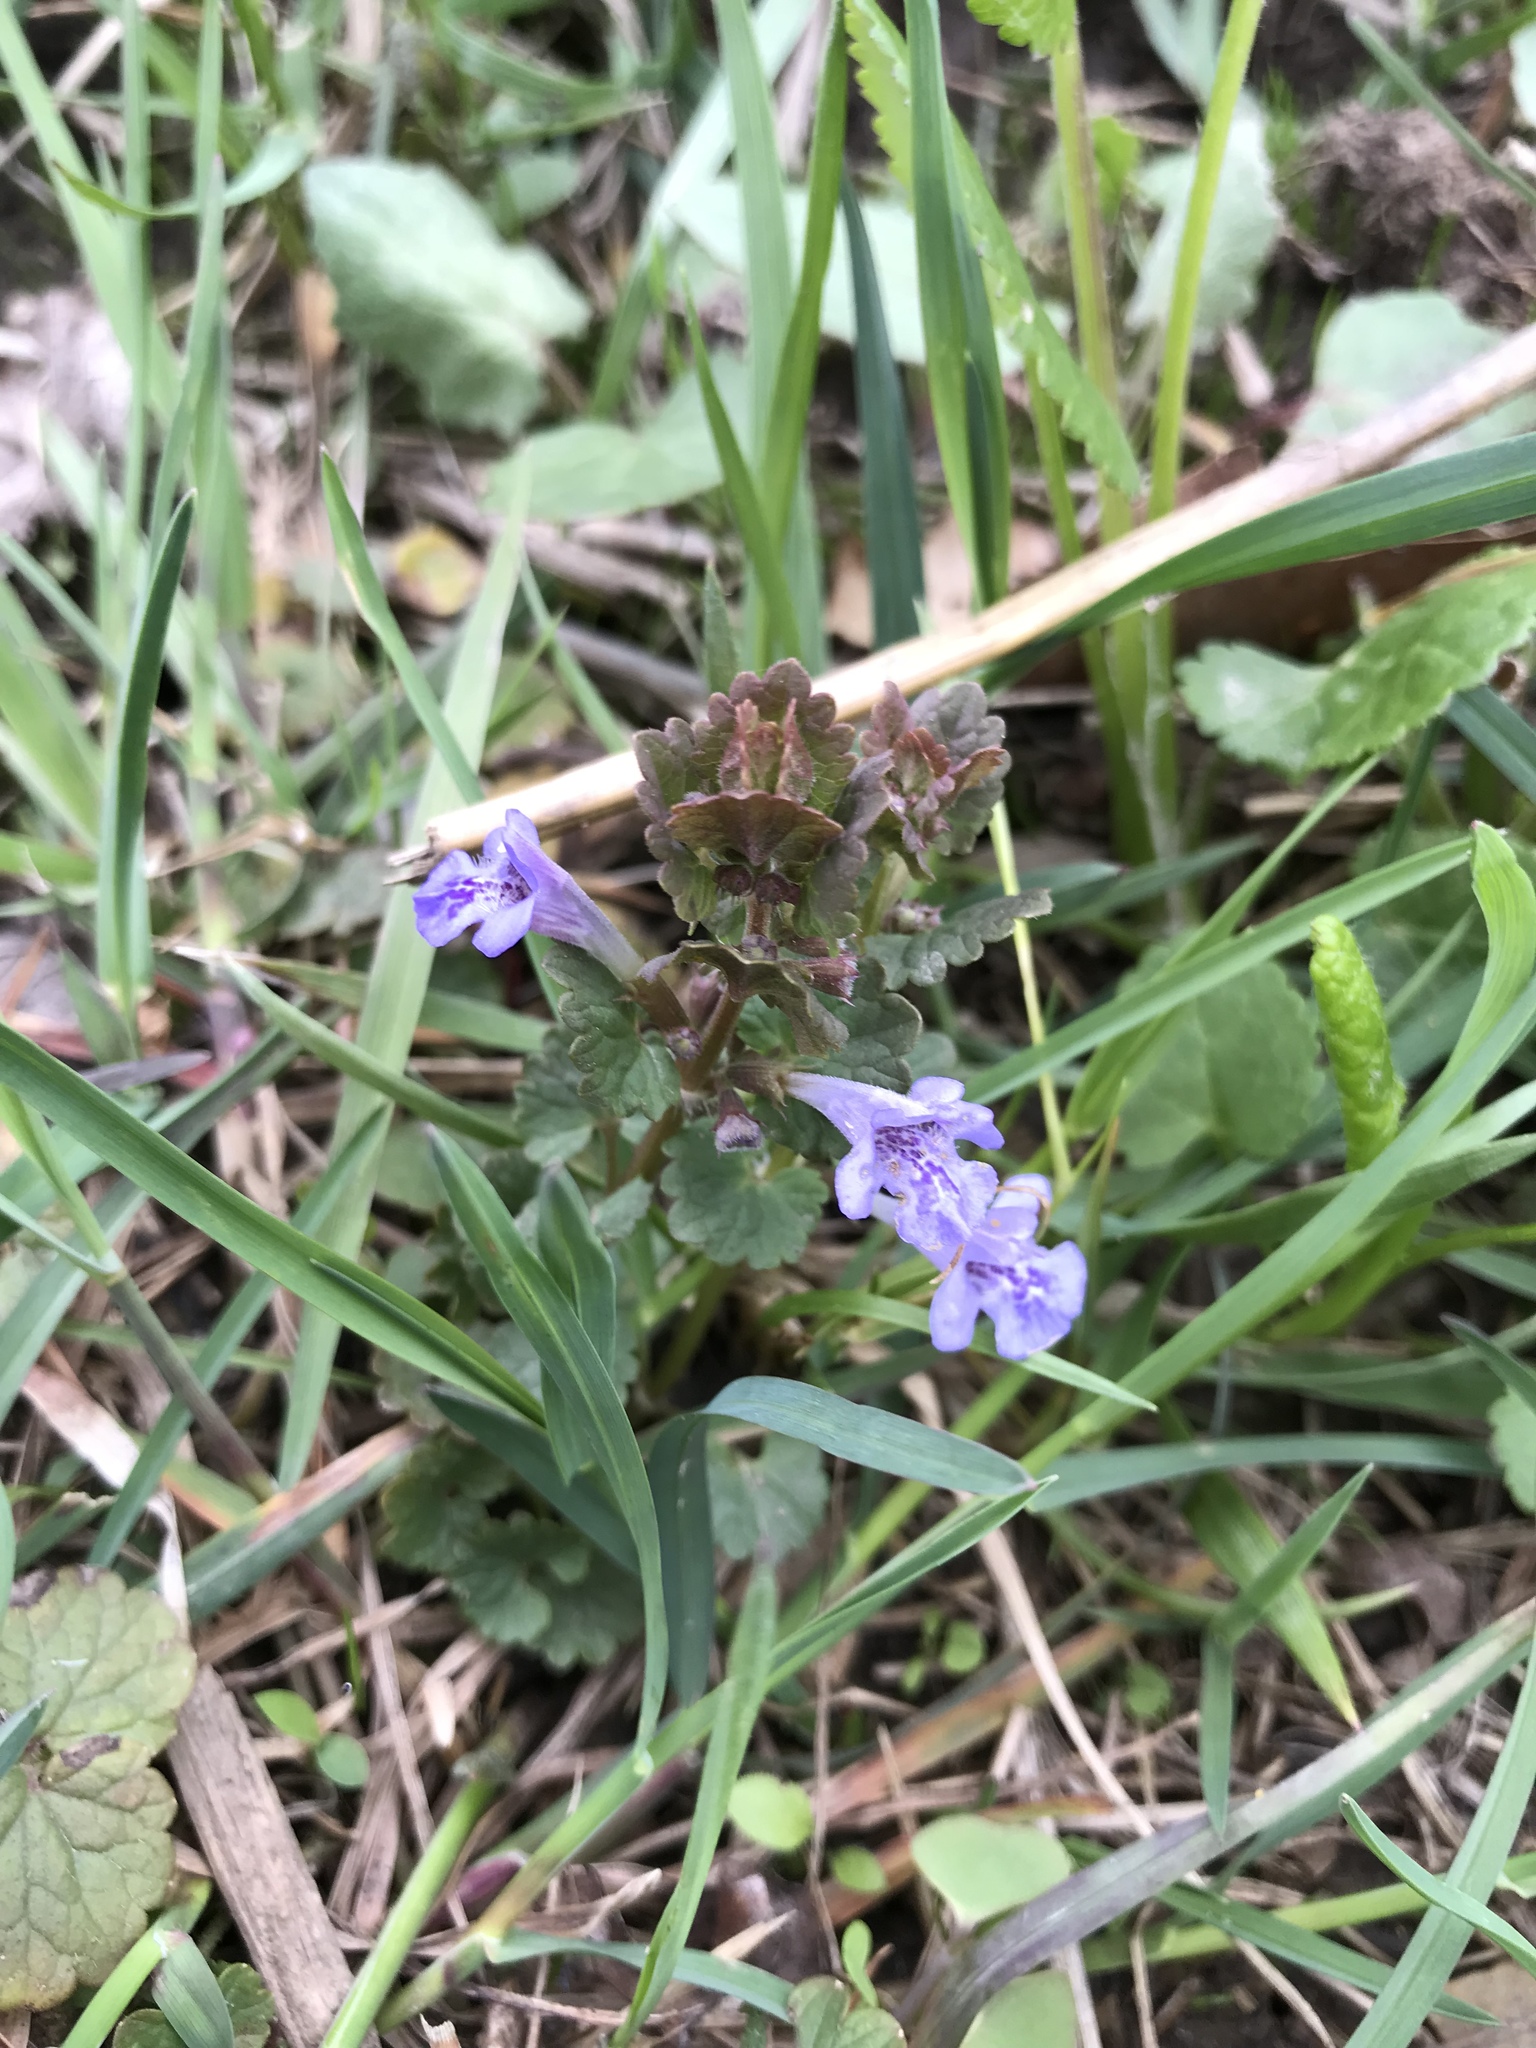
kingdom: Plantae
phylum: Tracheophyta
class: Magnoliopsida
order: Lamiales
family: Lamiaceae
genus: Glechoma
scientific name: Glechoma hederacea
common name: Ground ivy
